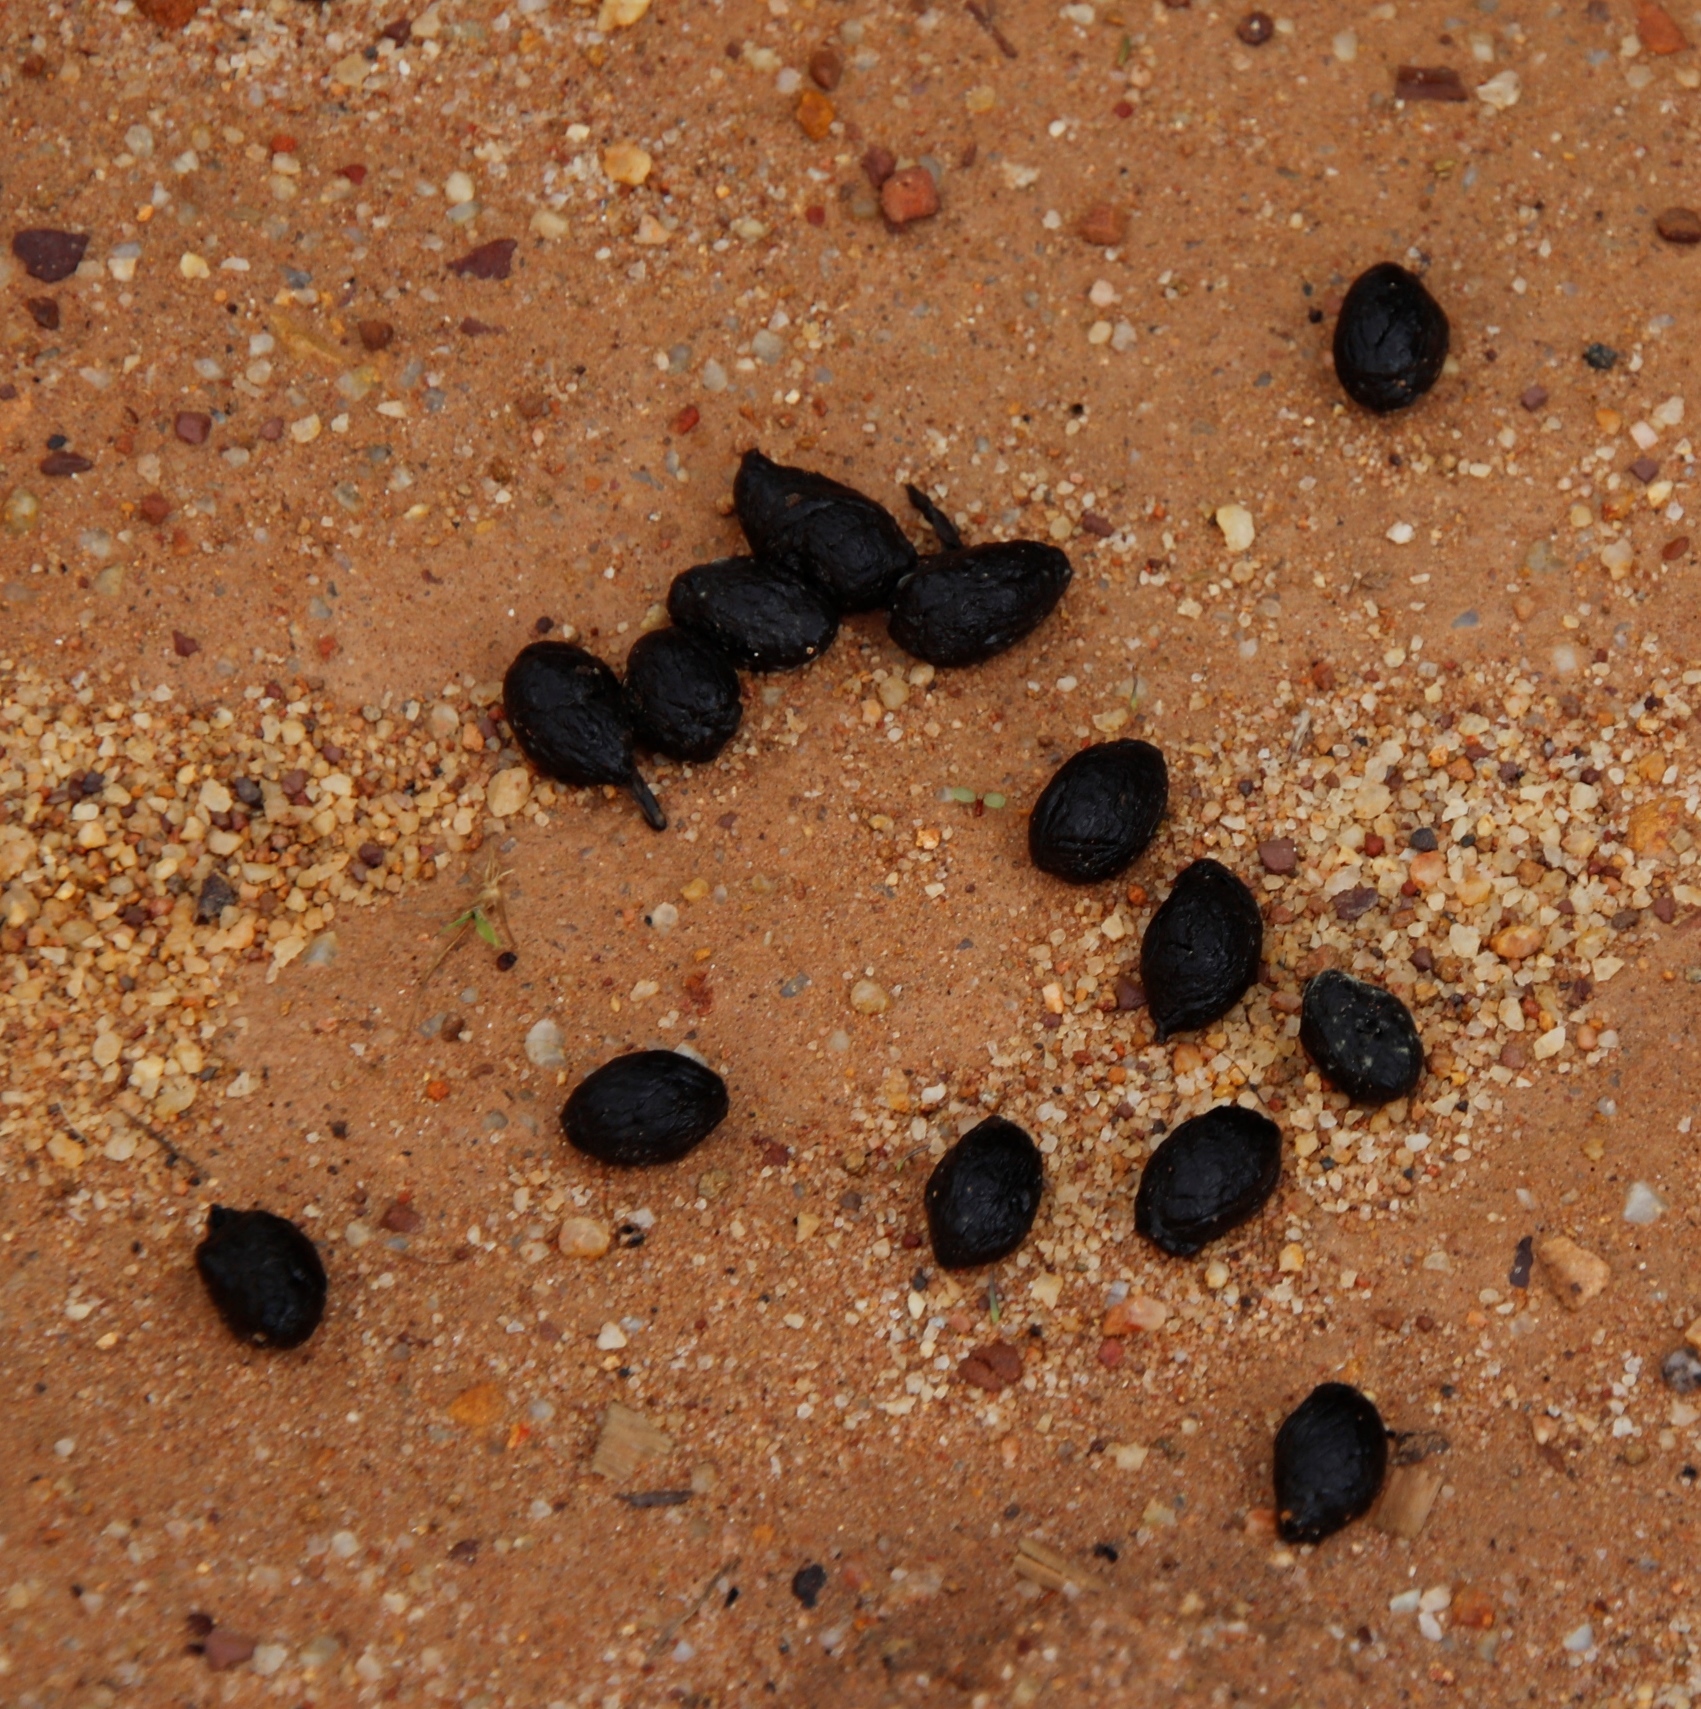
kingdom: Animalia
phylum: Chordata
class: Mammalia
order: Artiodactyla
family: Bovidae
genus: Sylvicapra
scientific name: Sylvicapra grimmia
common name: Bush duiker
